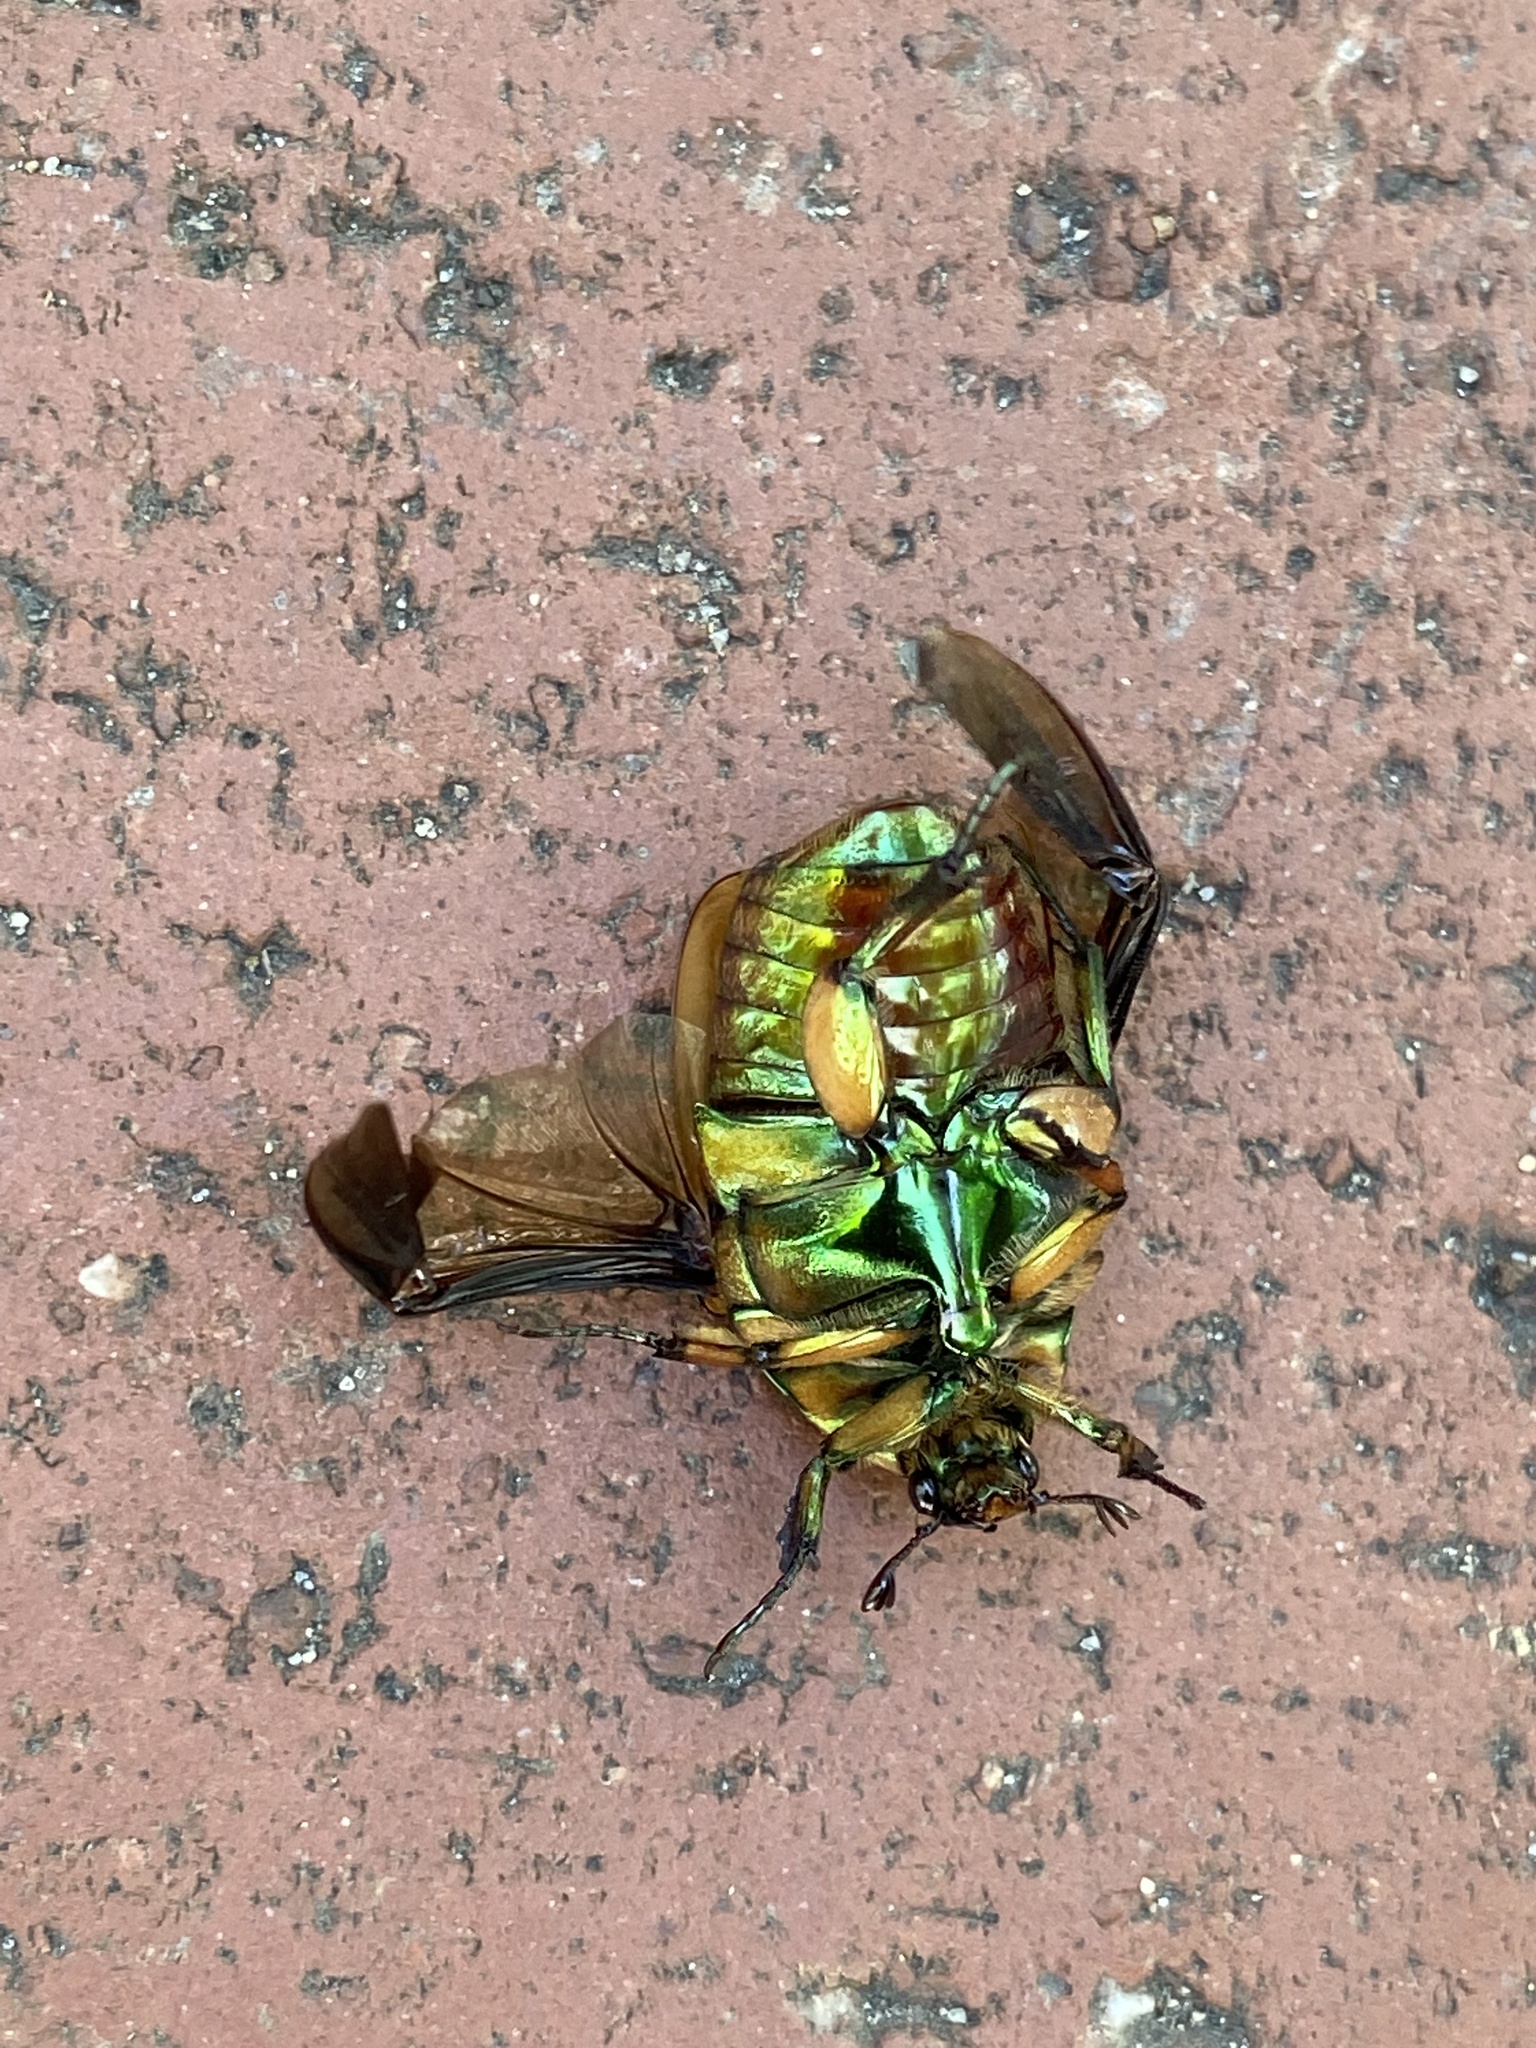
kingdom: Animalia
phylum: Arthropoda
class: Insecta
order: Coleoptera
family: Scarabaeidae
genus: Cotinis
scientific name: Cotinis nitida
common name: Common green june beetle
